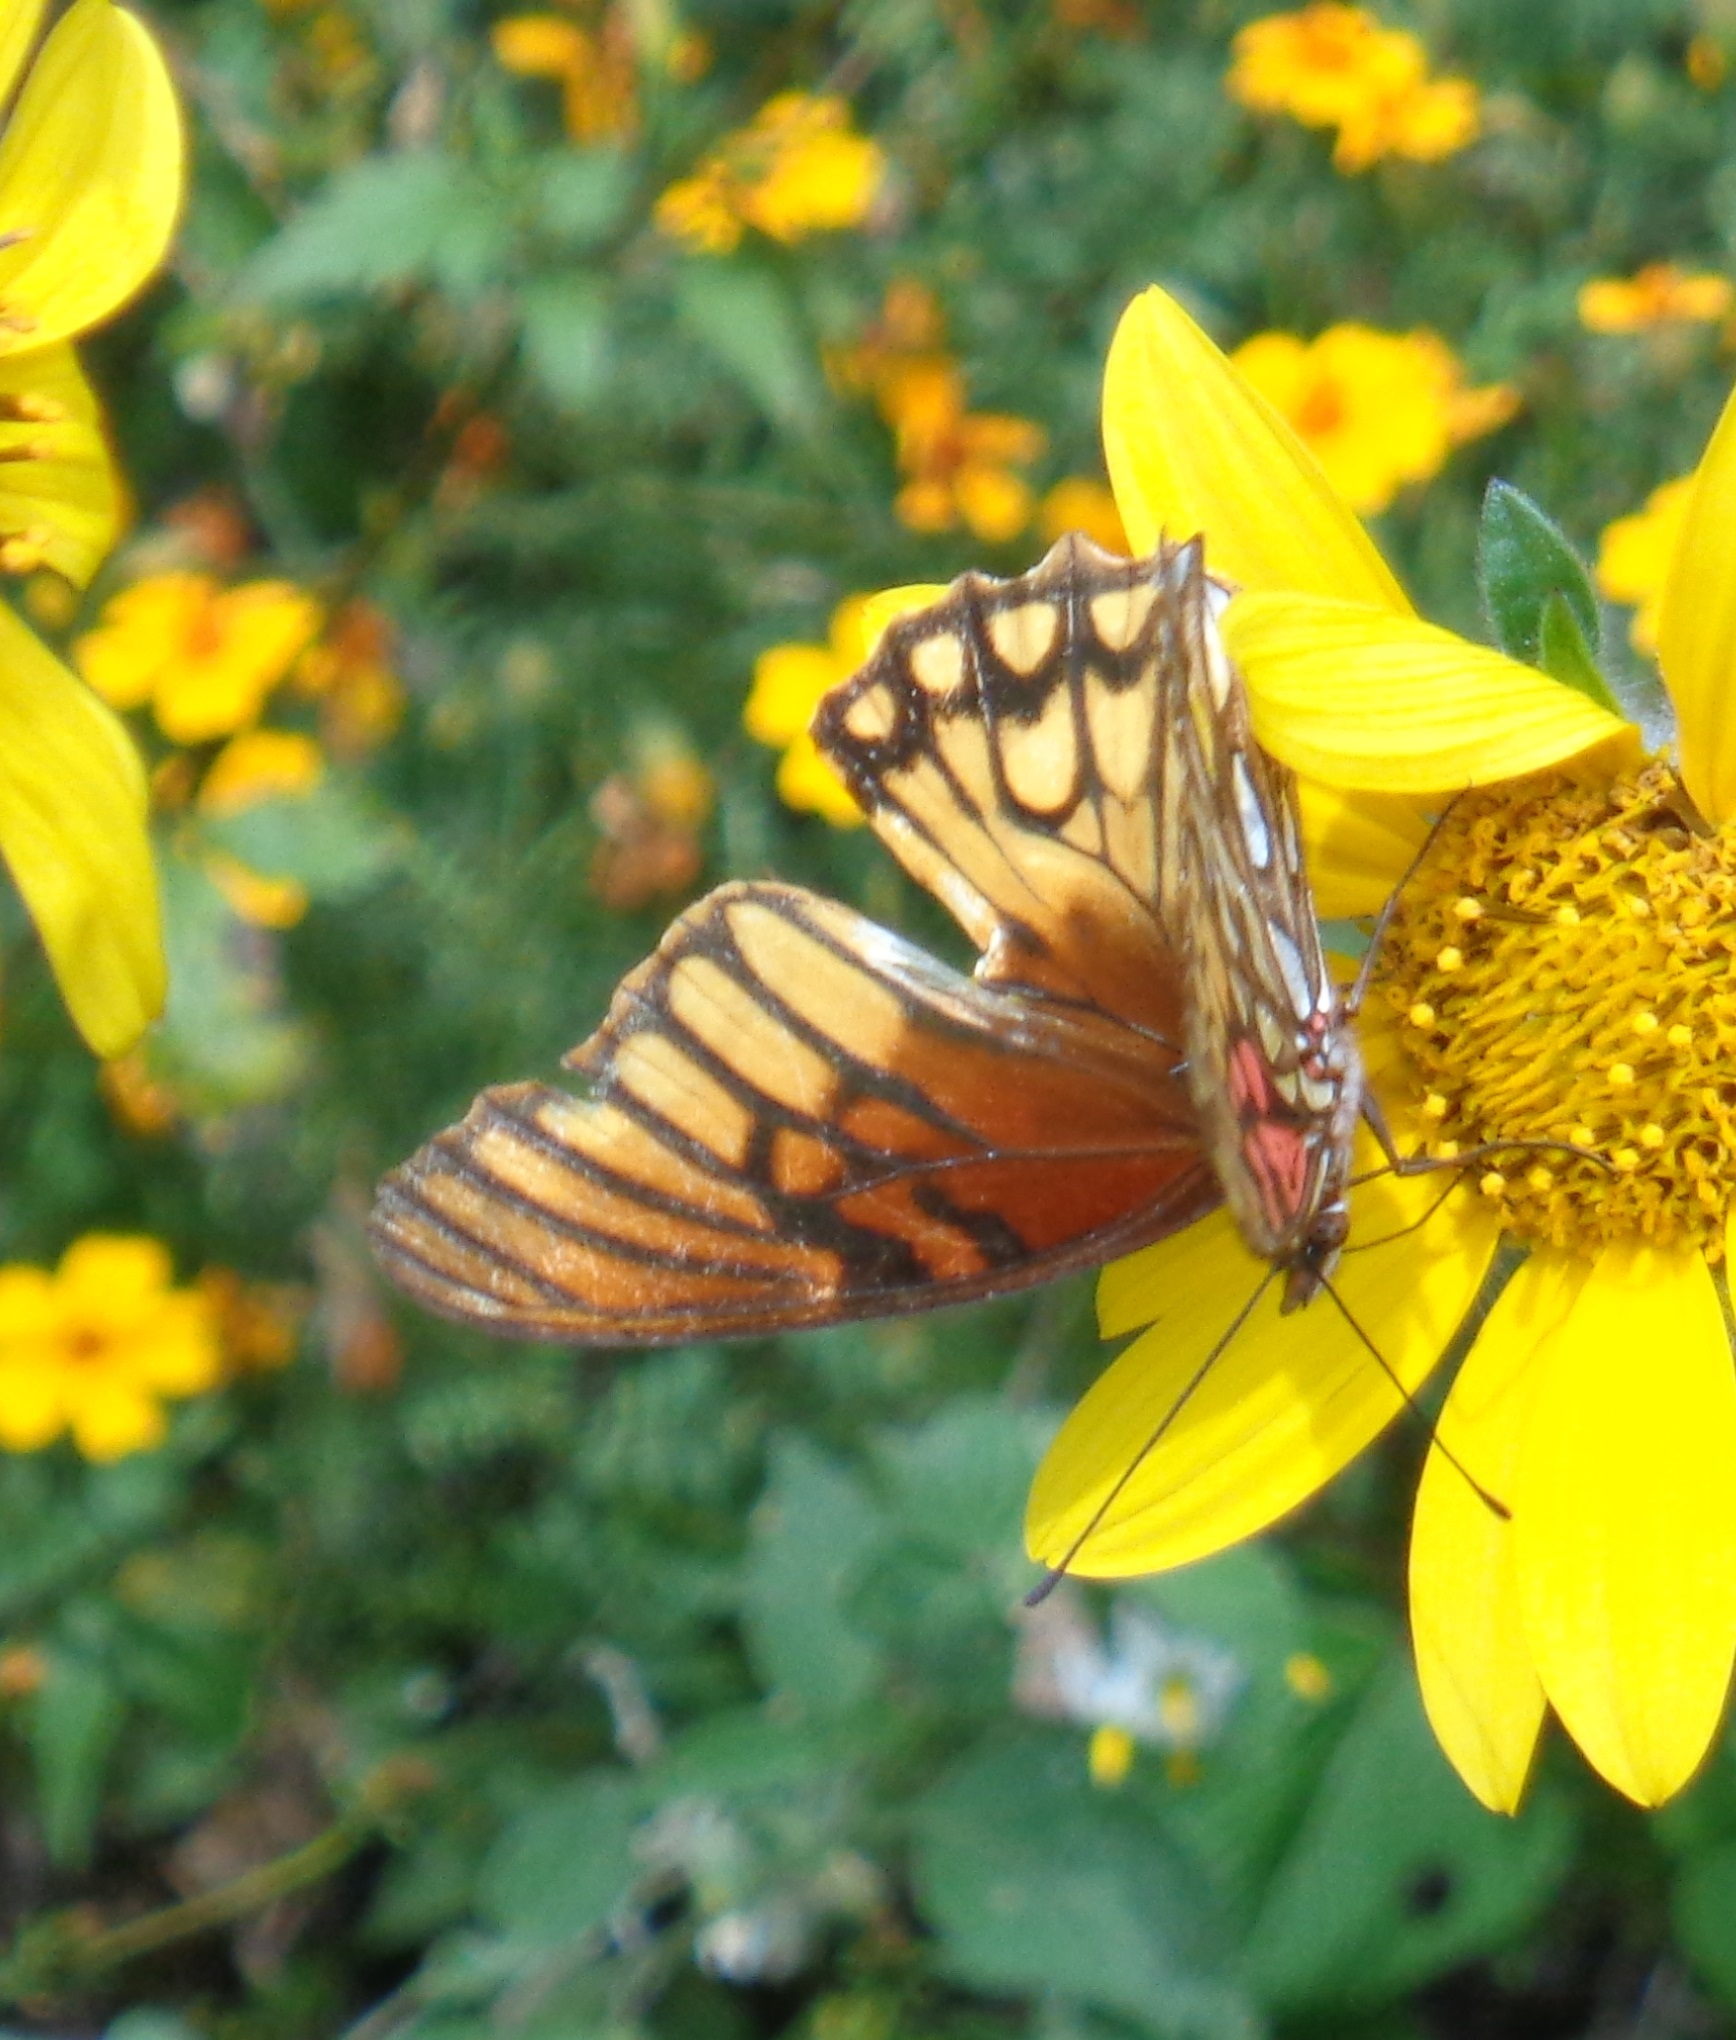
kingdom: Animalia
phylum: Arthropoda
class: Insecta
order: Lepidoptera
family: Nymphalidae
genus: Dione
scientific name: Dione moneta
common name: Mexican silverspot
